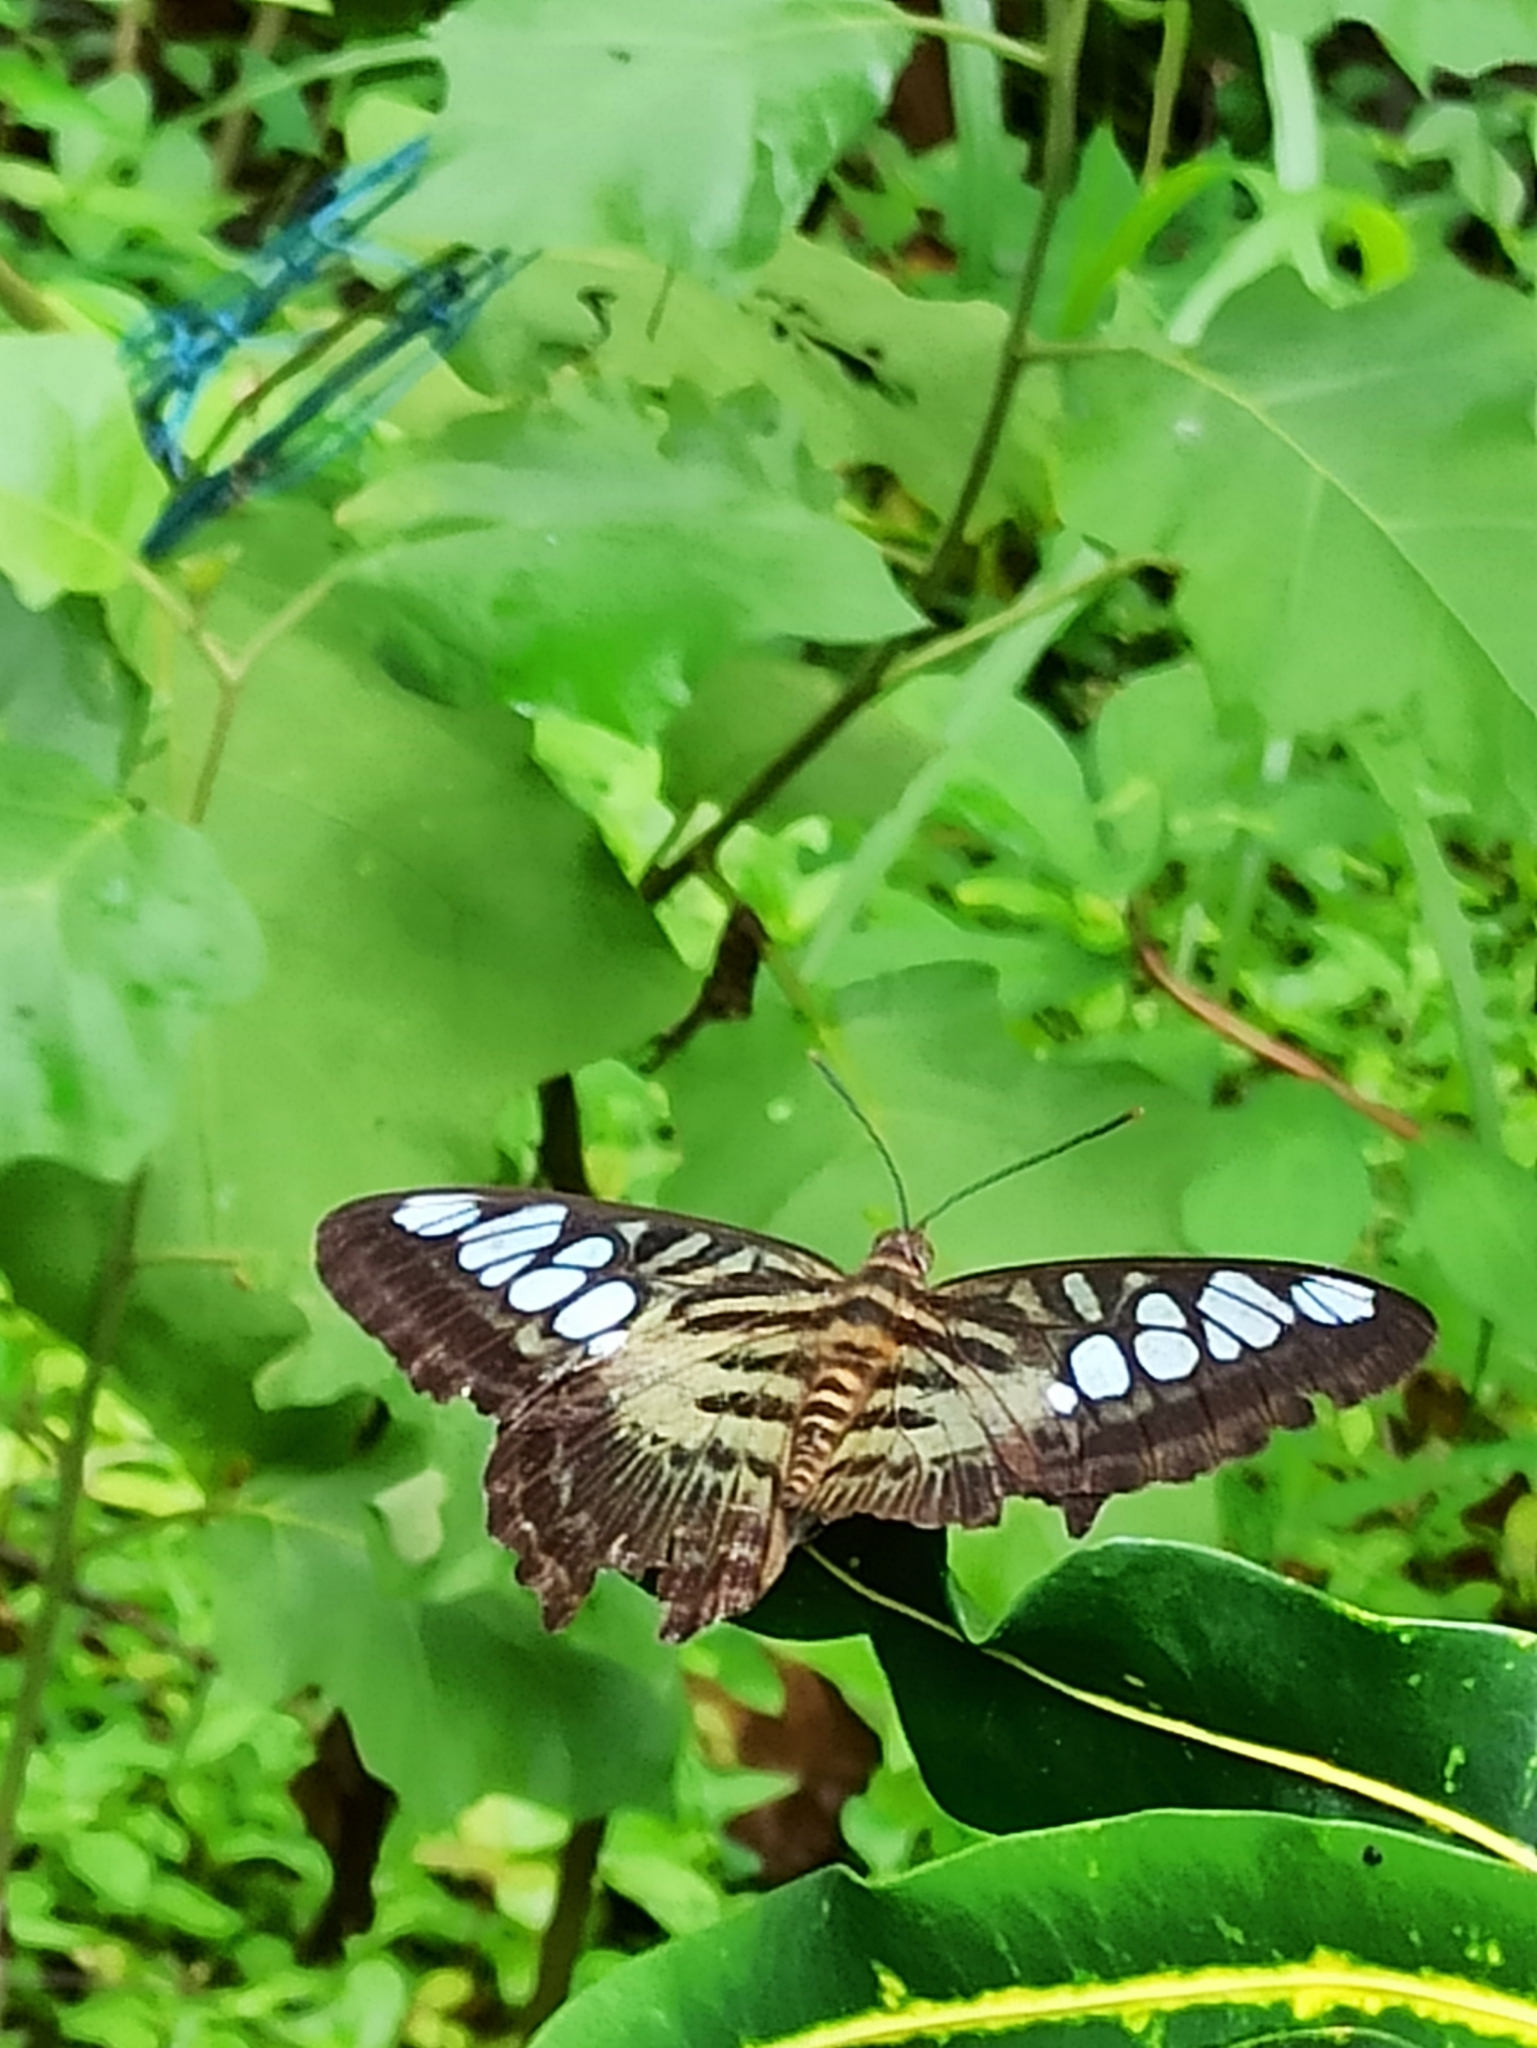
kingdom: Animalia
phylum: Arthropoda
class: Insecta
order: Lepidoptera
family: Nymphalidae
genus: Kallima
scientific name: Kallima sylvia
